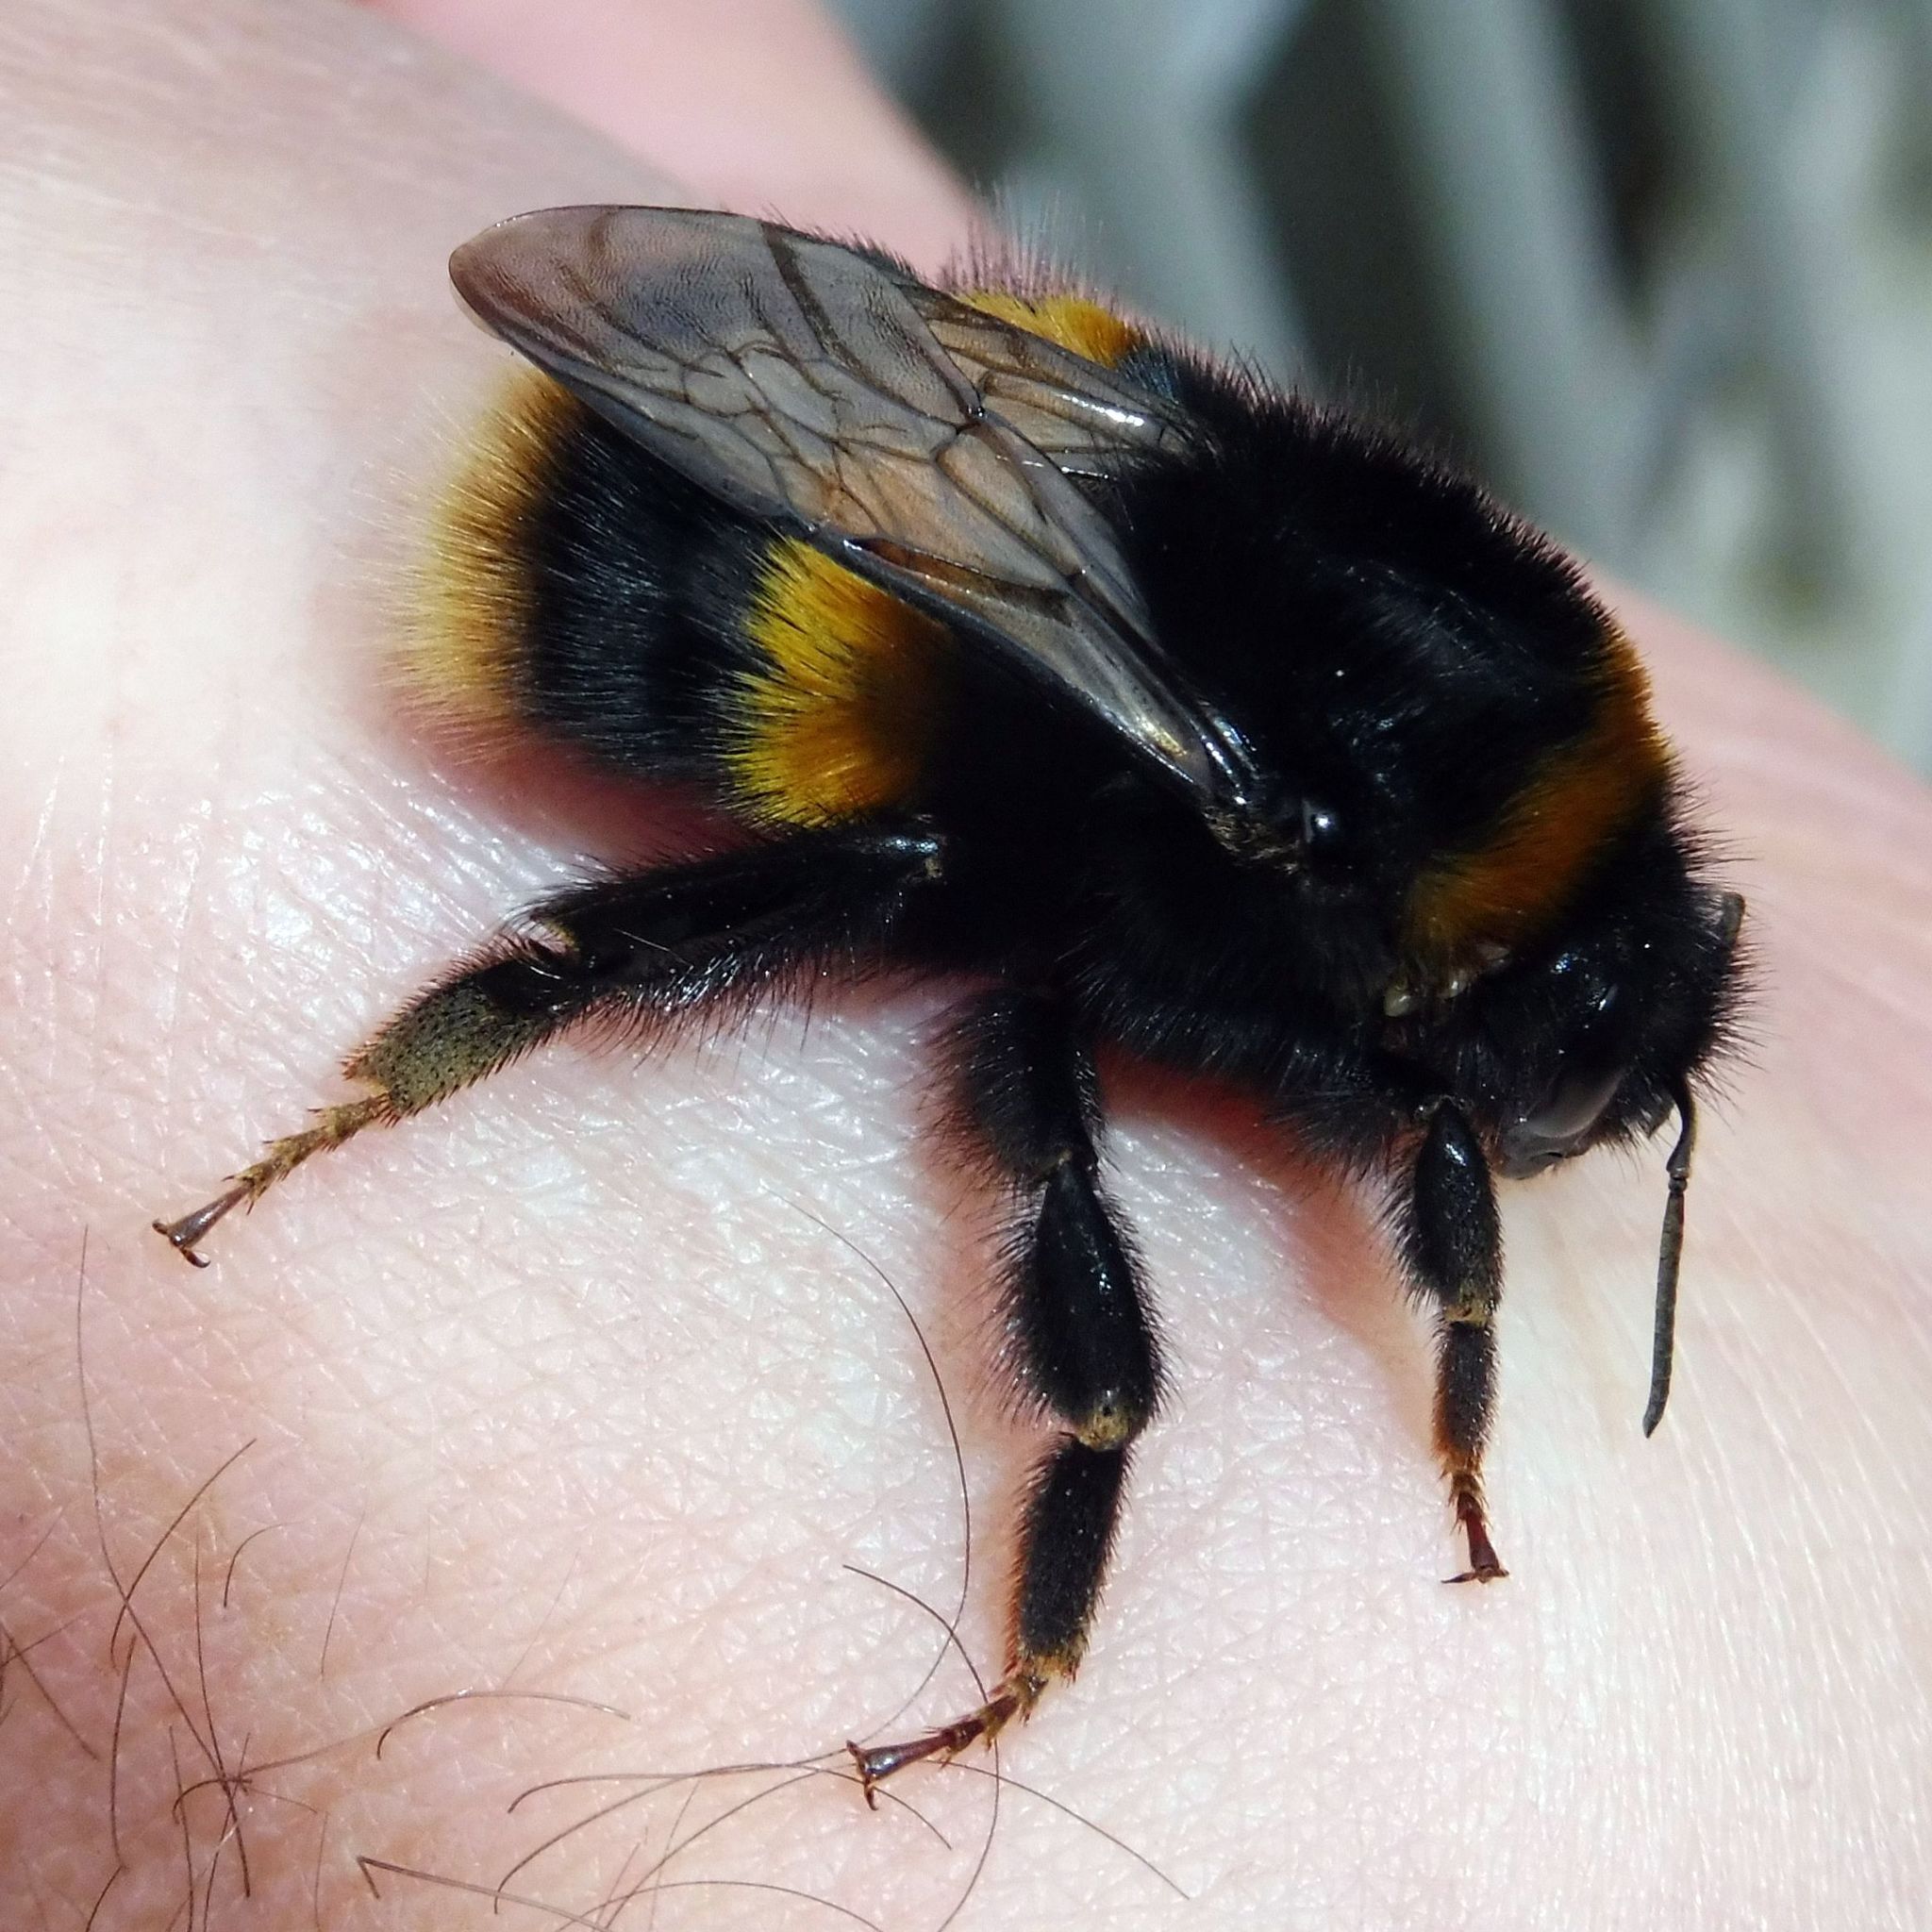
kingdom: Animalia
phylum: Arthropoda
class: Insecta
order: Hymenoptera
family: Apidae
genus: Bombus
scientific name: Bombus terrestris
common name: Buff-tailed bumblebee
